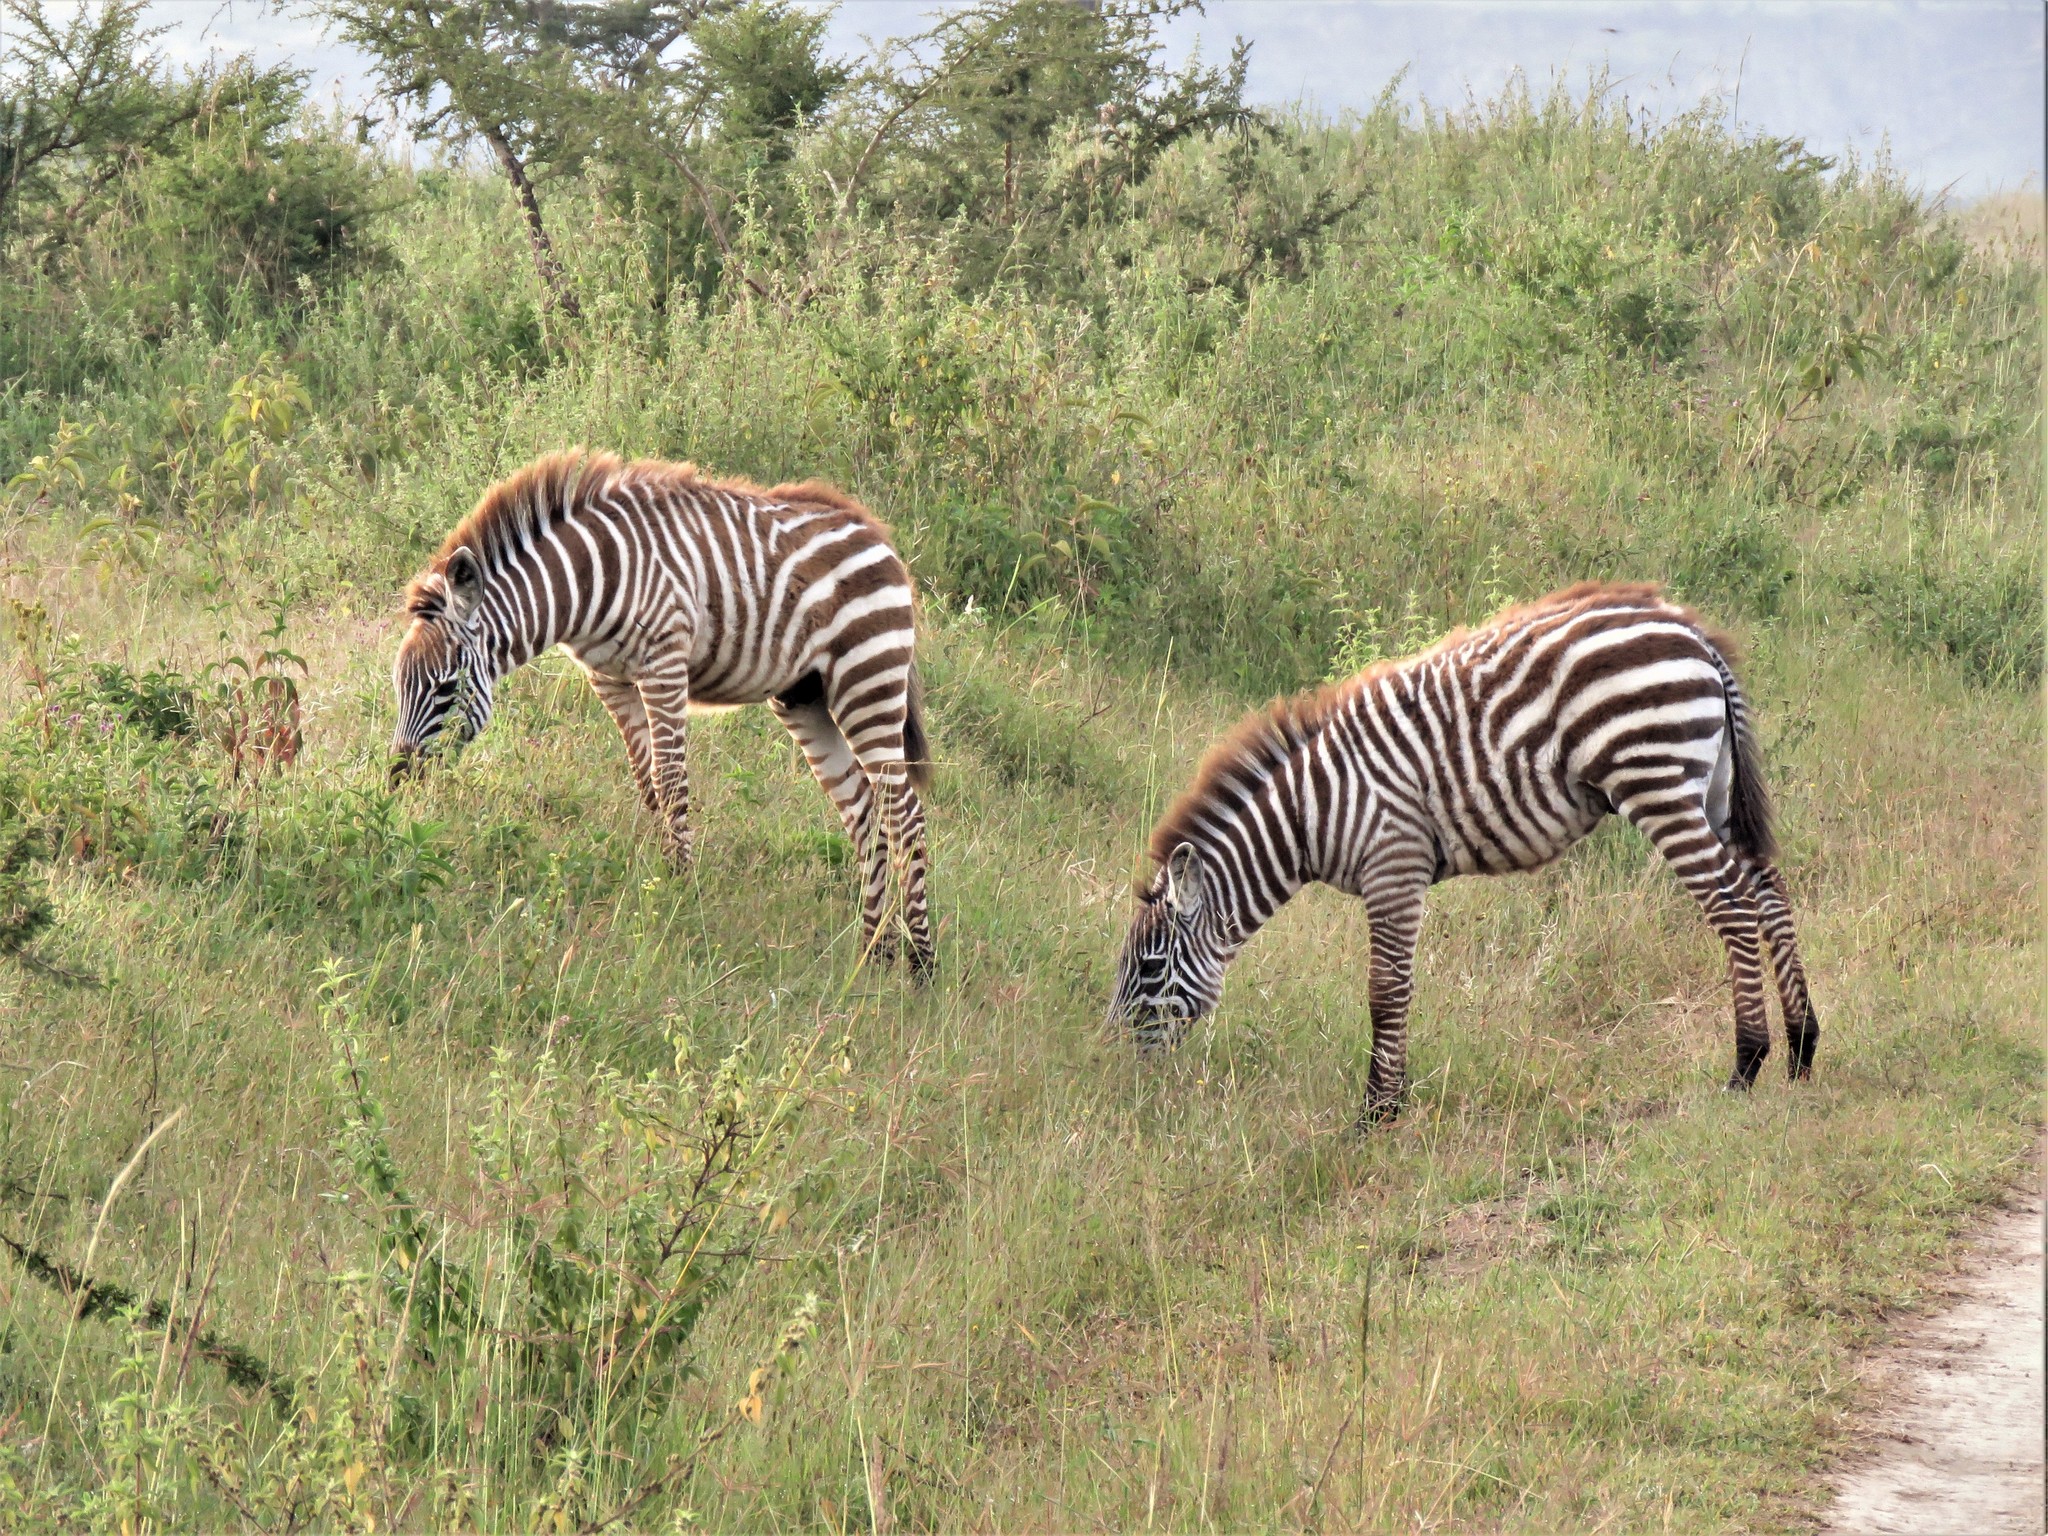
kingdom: Animalia
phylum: Chordata
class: Mammalia
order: Perissodactyla
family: Equidae
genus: Equus
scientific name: Equus quagga
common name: Plains zebra
